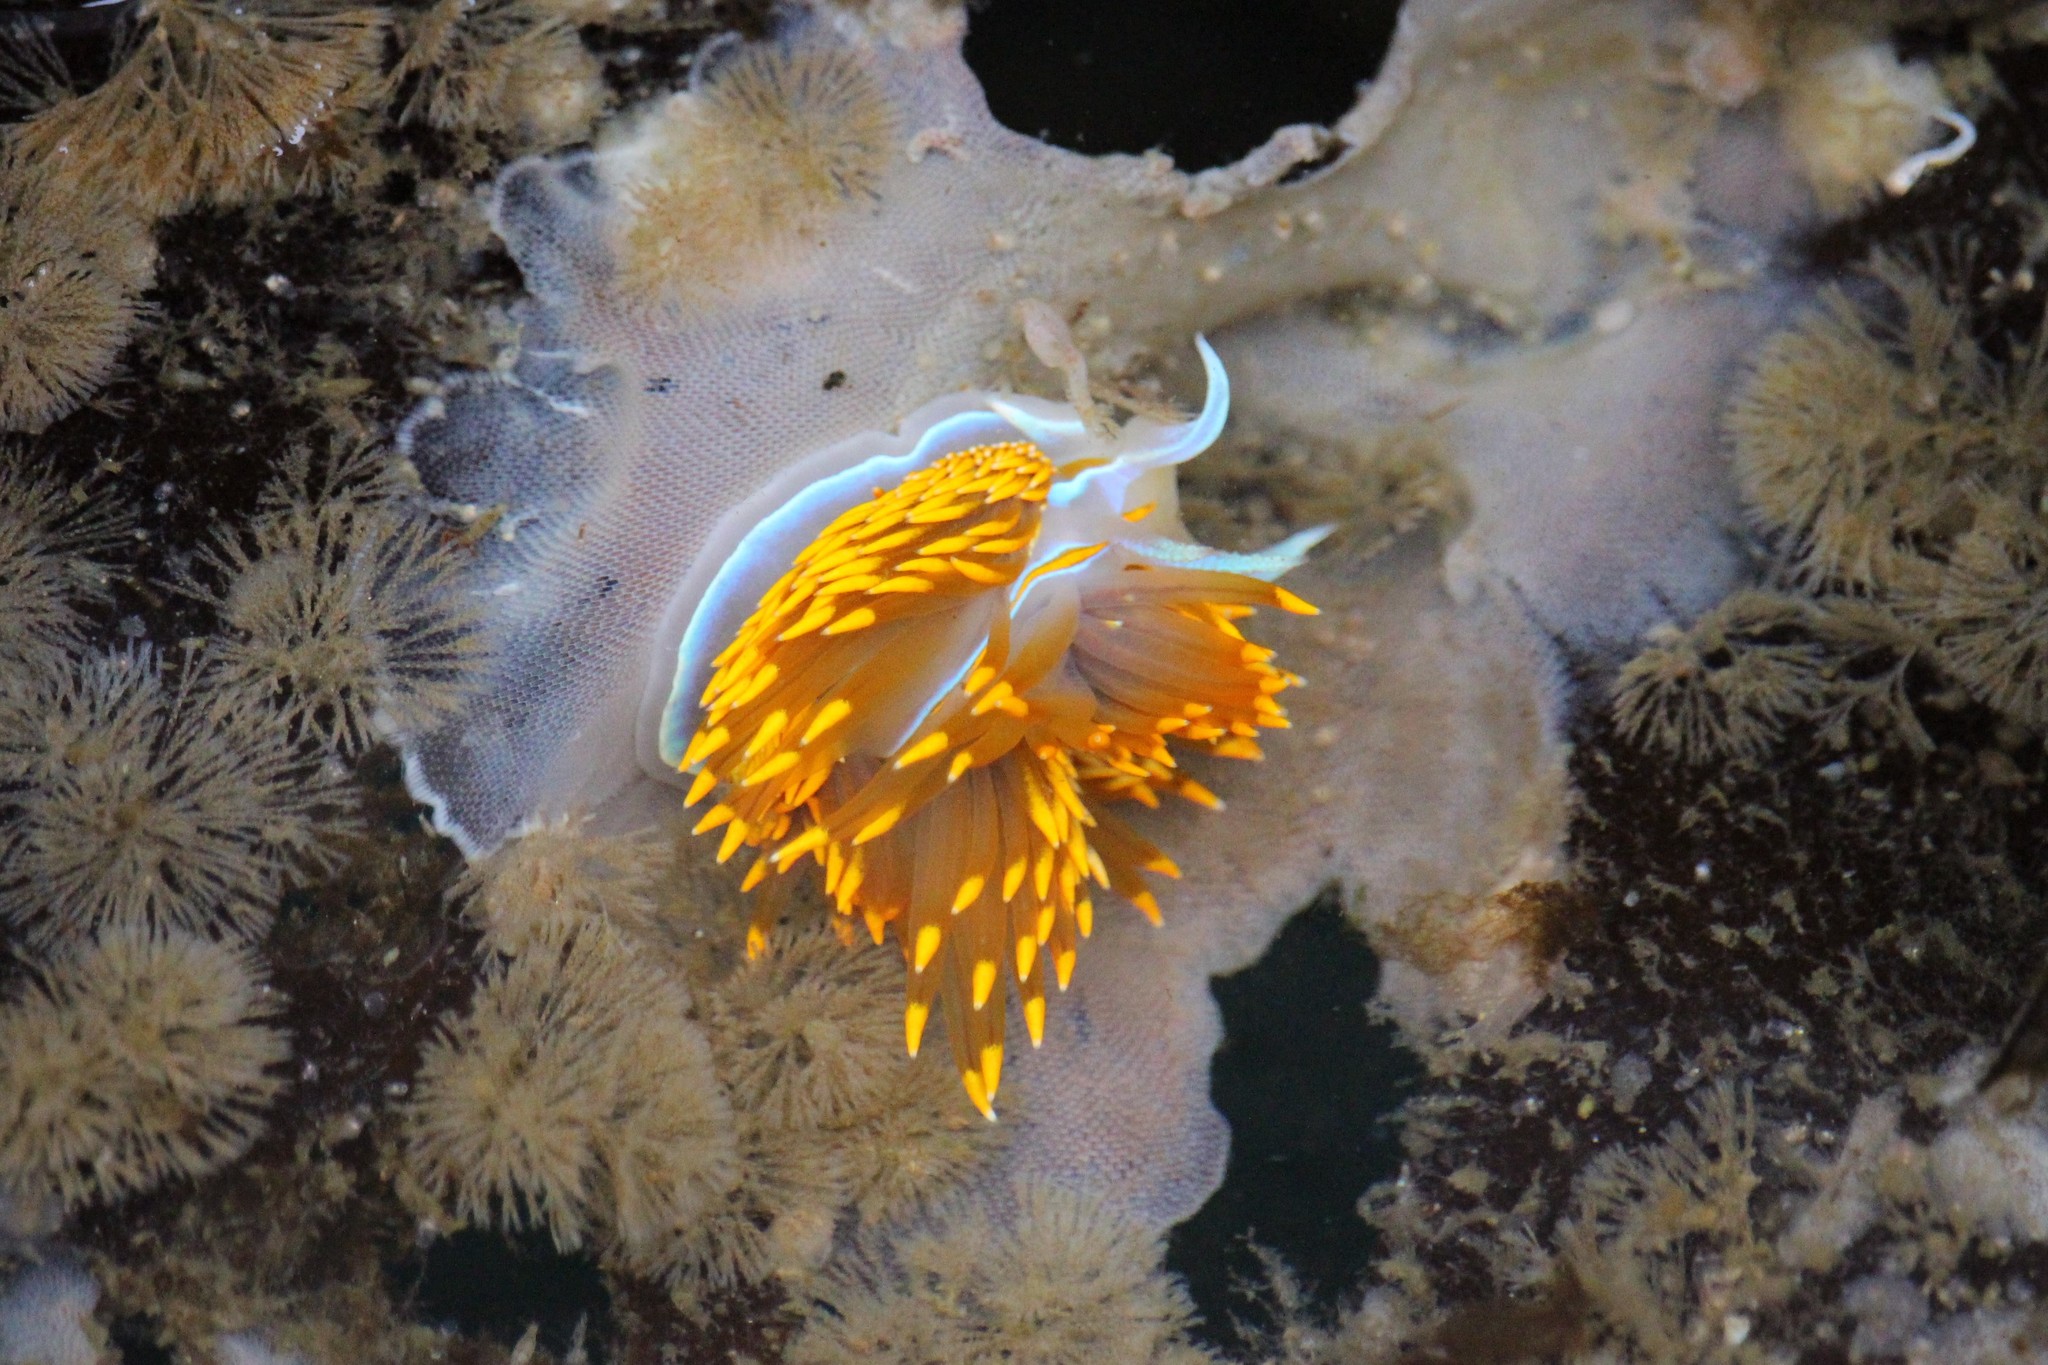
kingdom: Animalia
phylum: Mollusca
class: Gastropoda
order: Nudibranchia
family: Myrrhinidae
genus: Hermissenda
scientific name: Hermissenda opalescens
